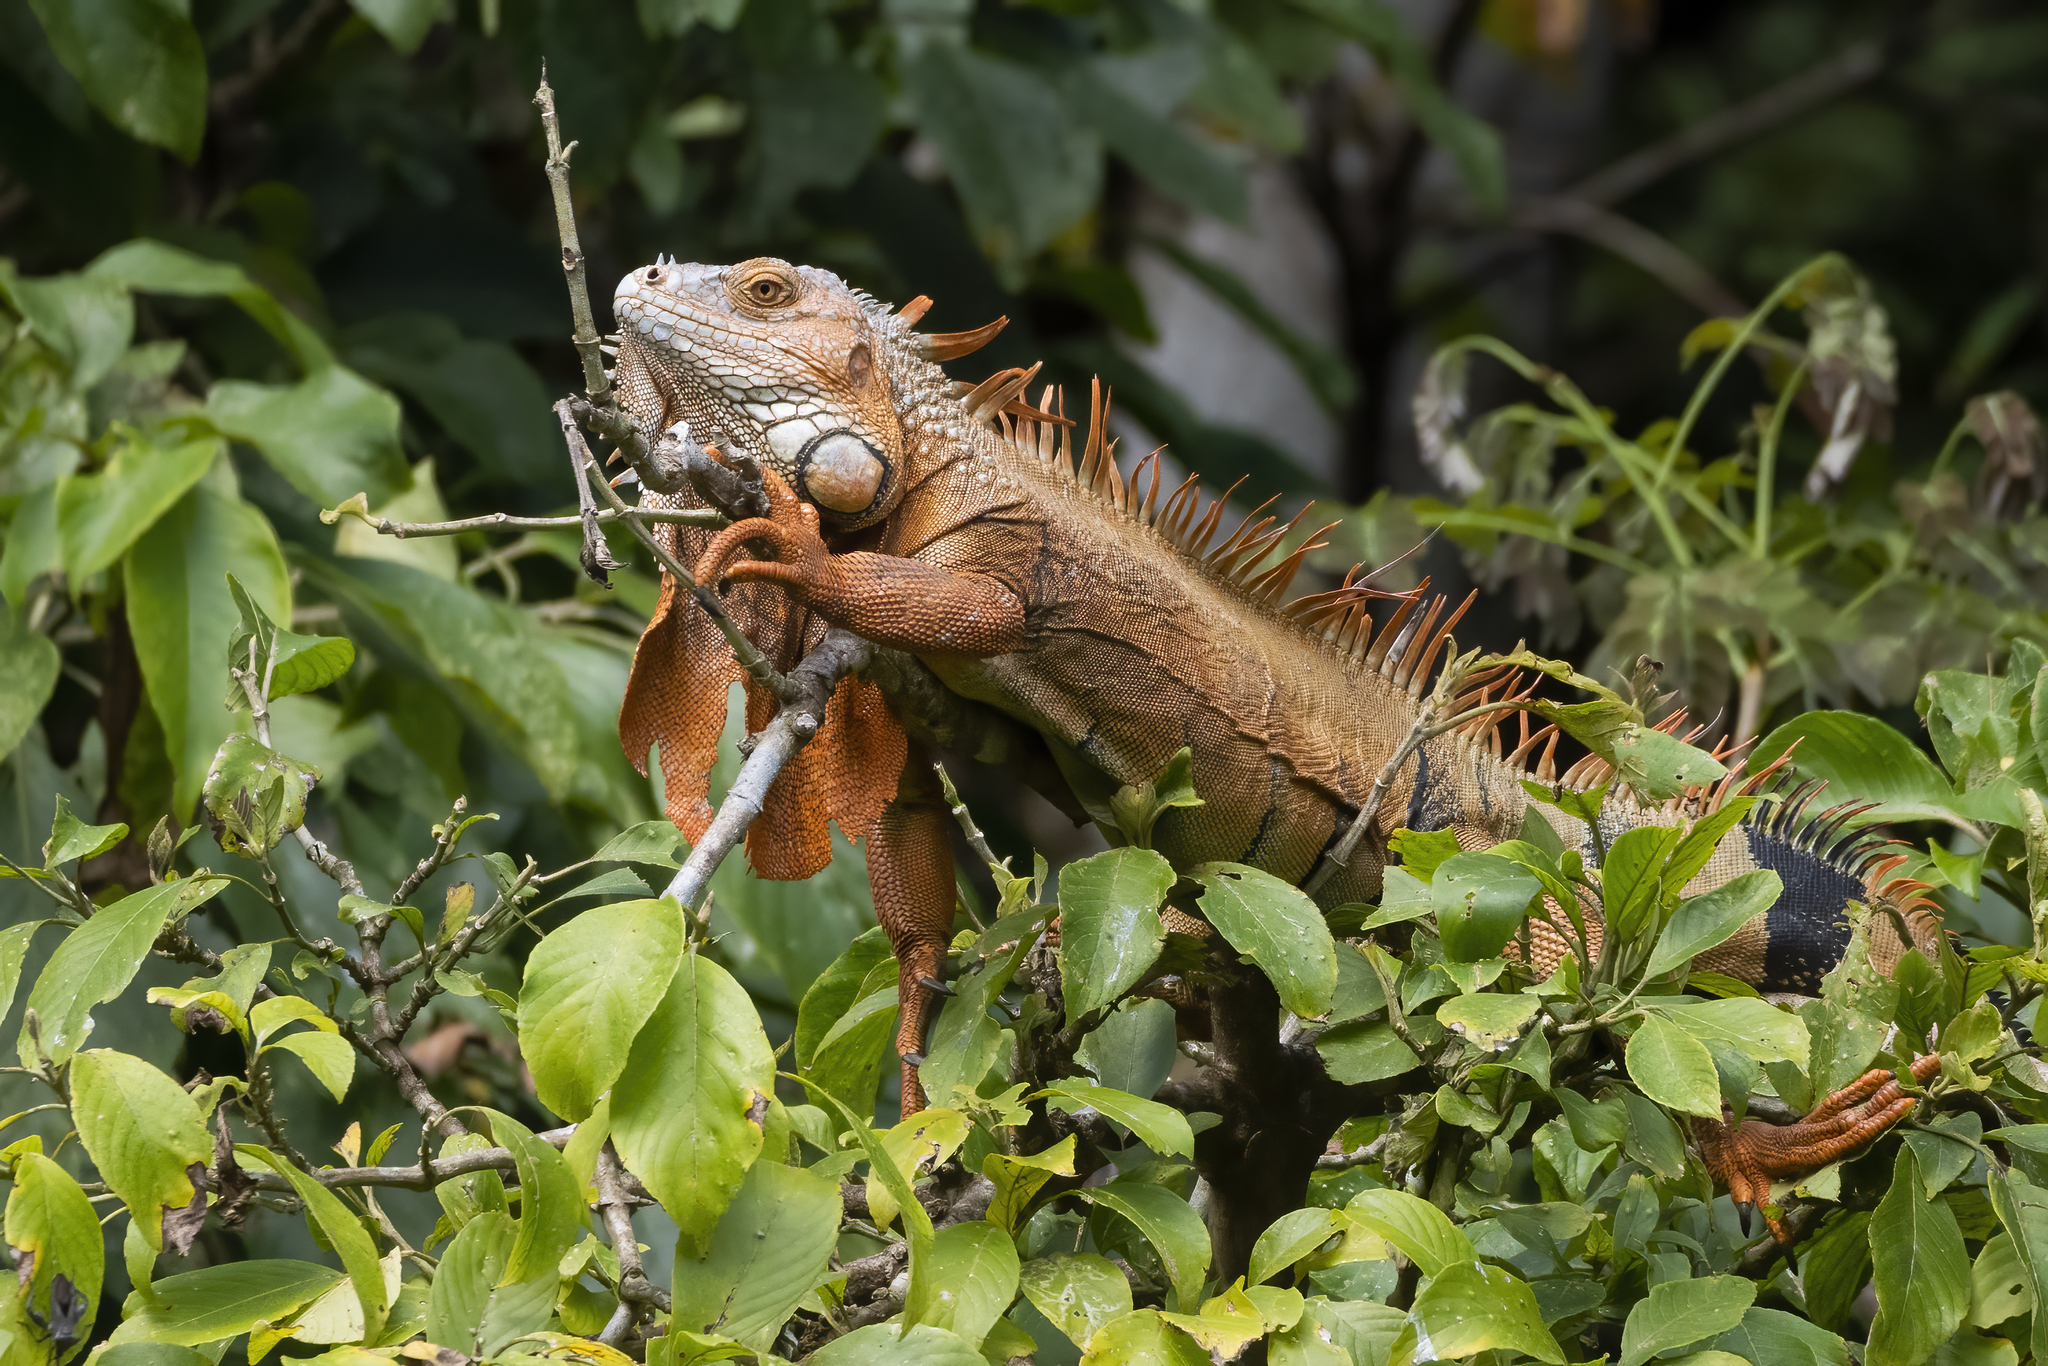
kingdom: Animalia
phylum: Chordata
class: Squamata
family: Iguanidae
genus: Iguana
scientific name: Iguana iguana
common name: Green iguana
